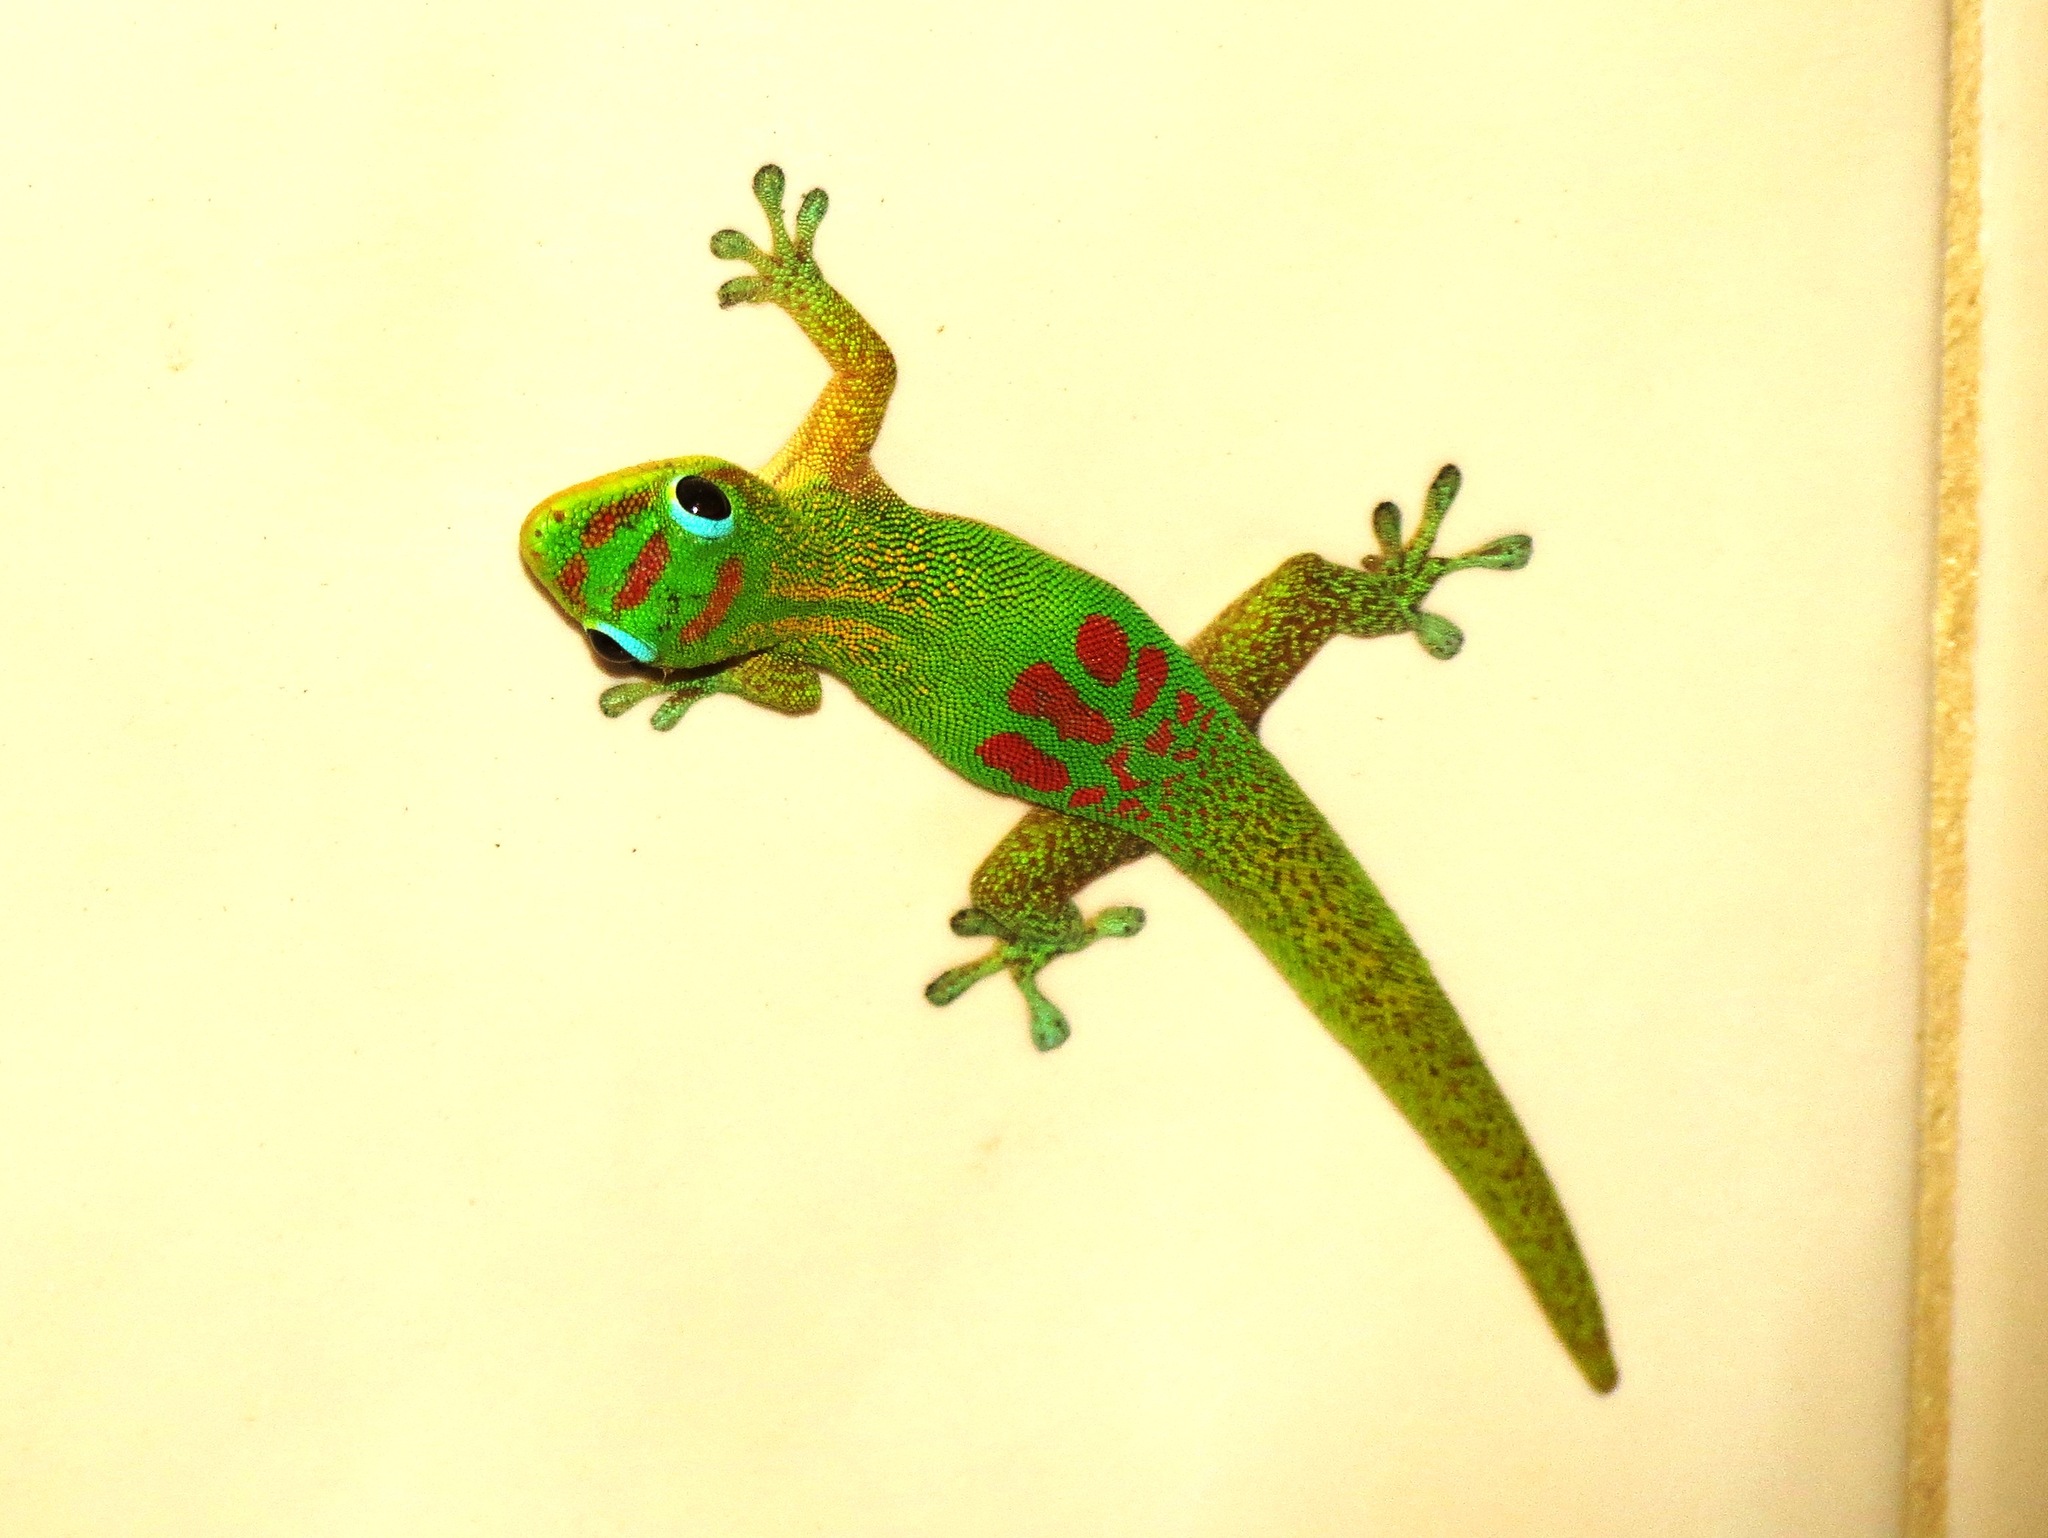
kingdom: Animalia
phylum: Chordata
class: Squamata
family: Gekkonidae
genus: Phelsuma
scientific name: Phelsuma laticauda
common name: Gold dust day gecko
